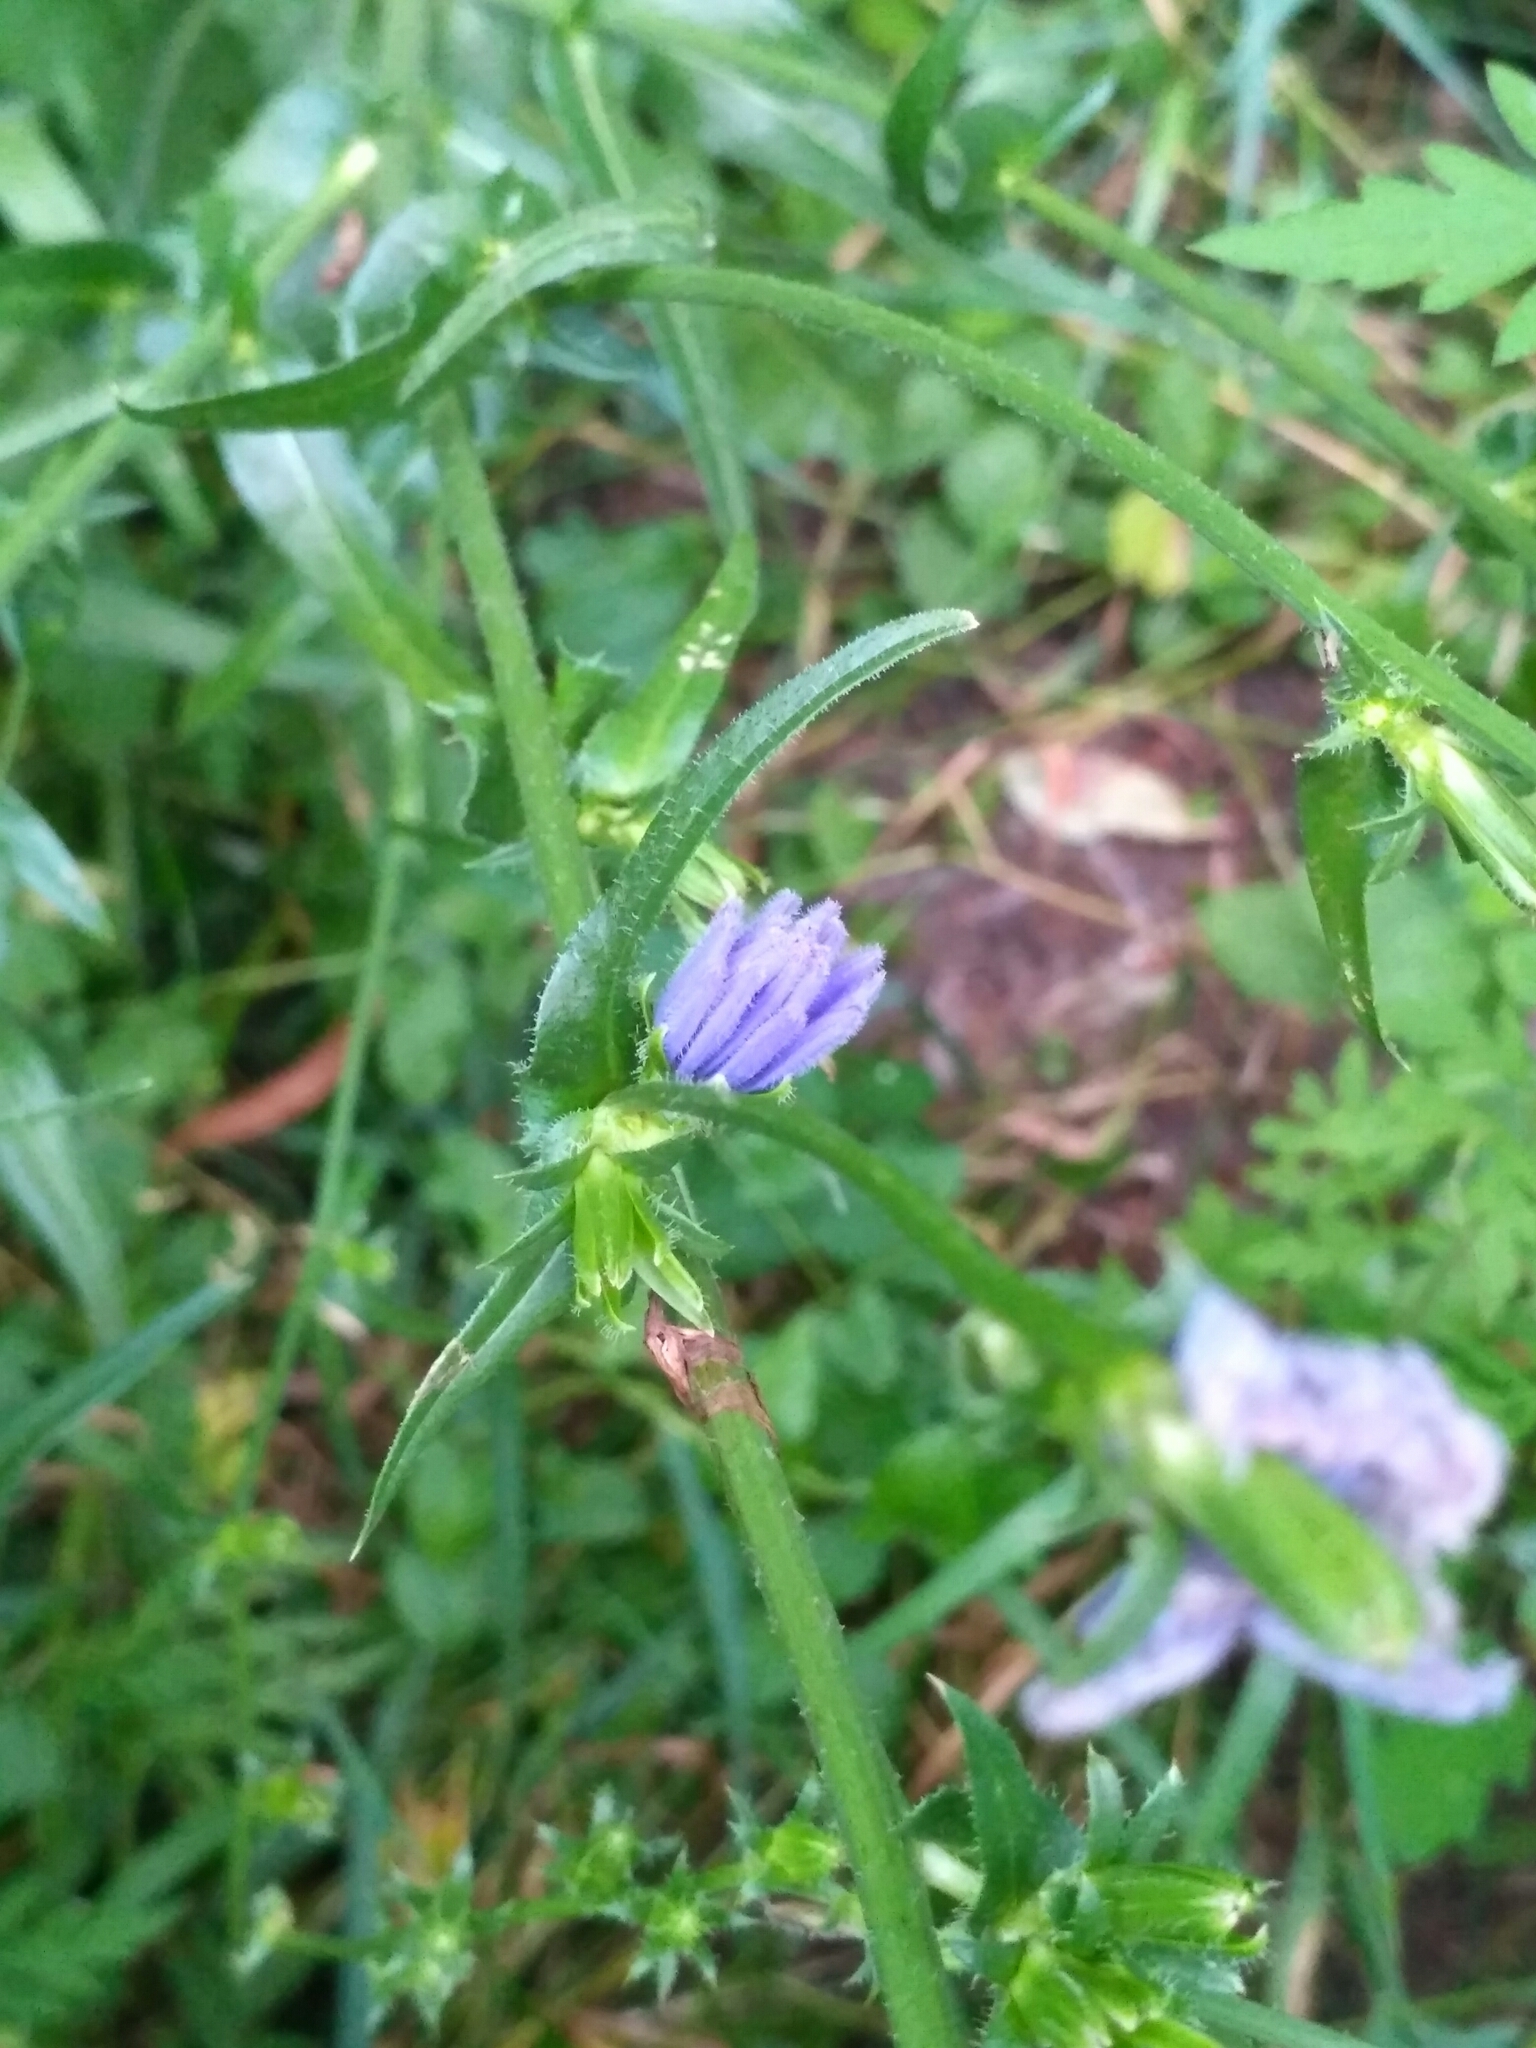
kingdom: Plantae
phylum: Tracheophyta
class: Magnoliopsida
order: Asterales
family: Asteraceae
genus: Cichorium
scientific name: Cichorium intybus
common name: Chicory
